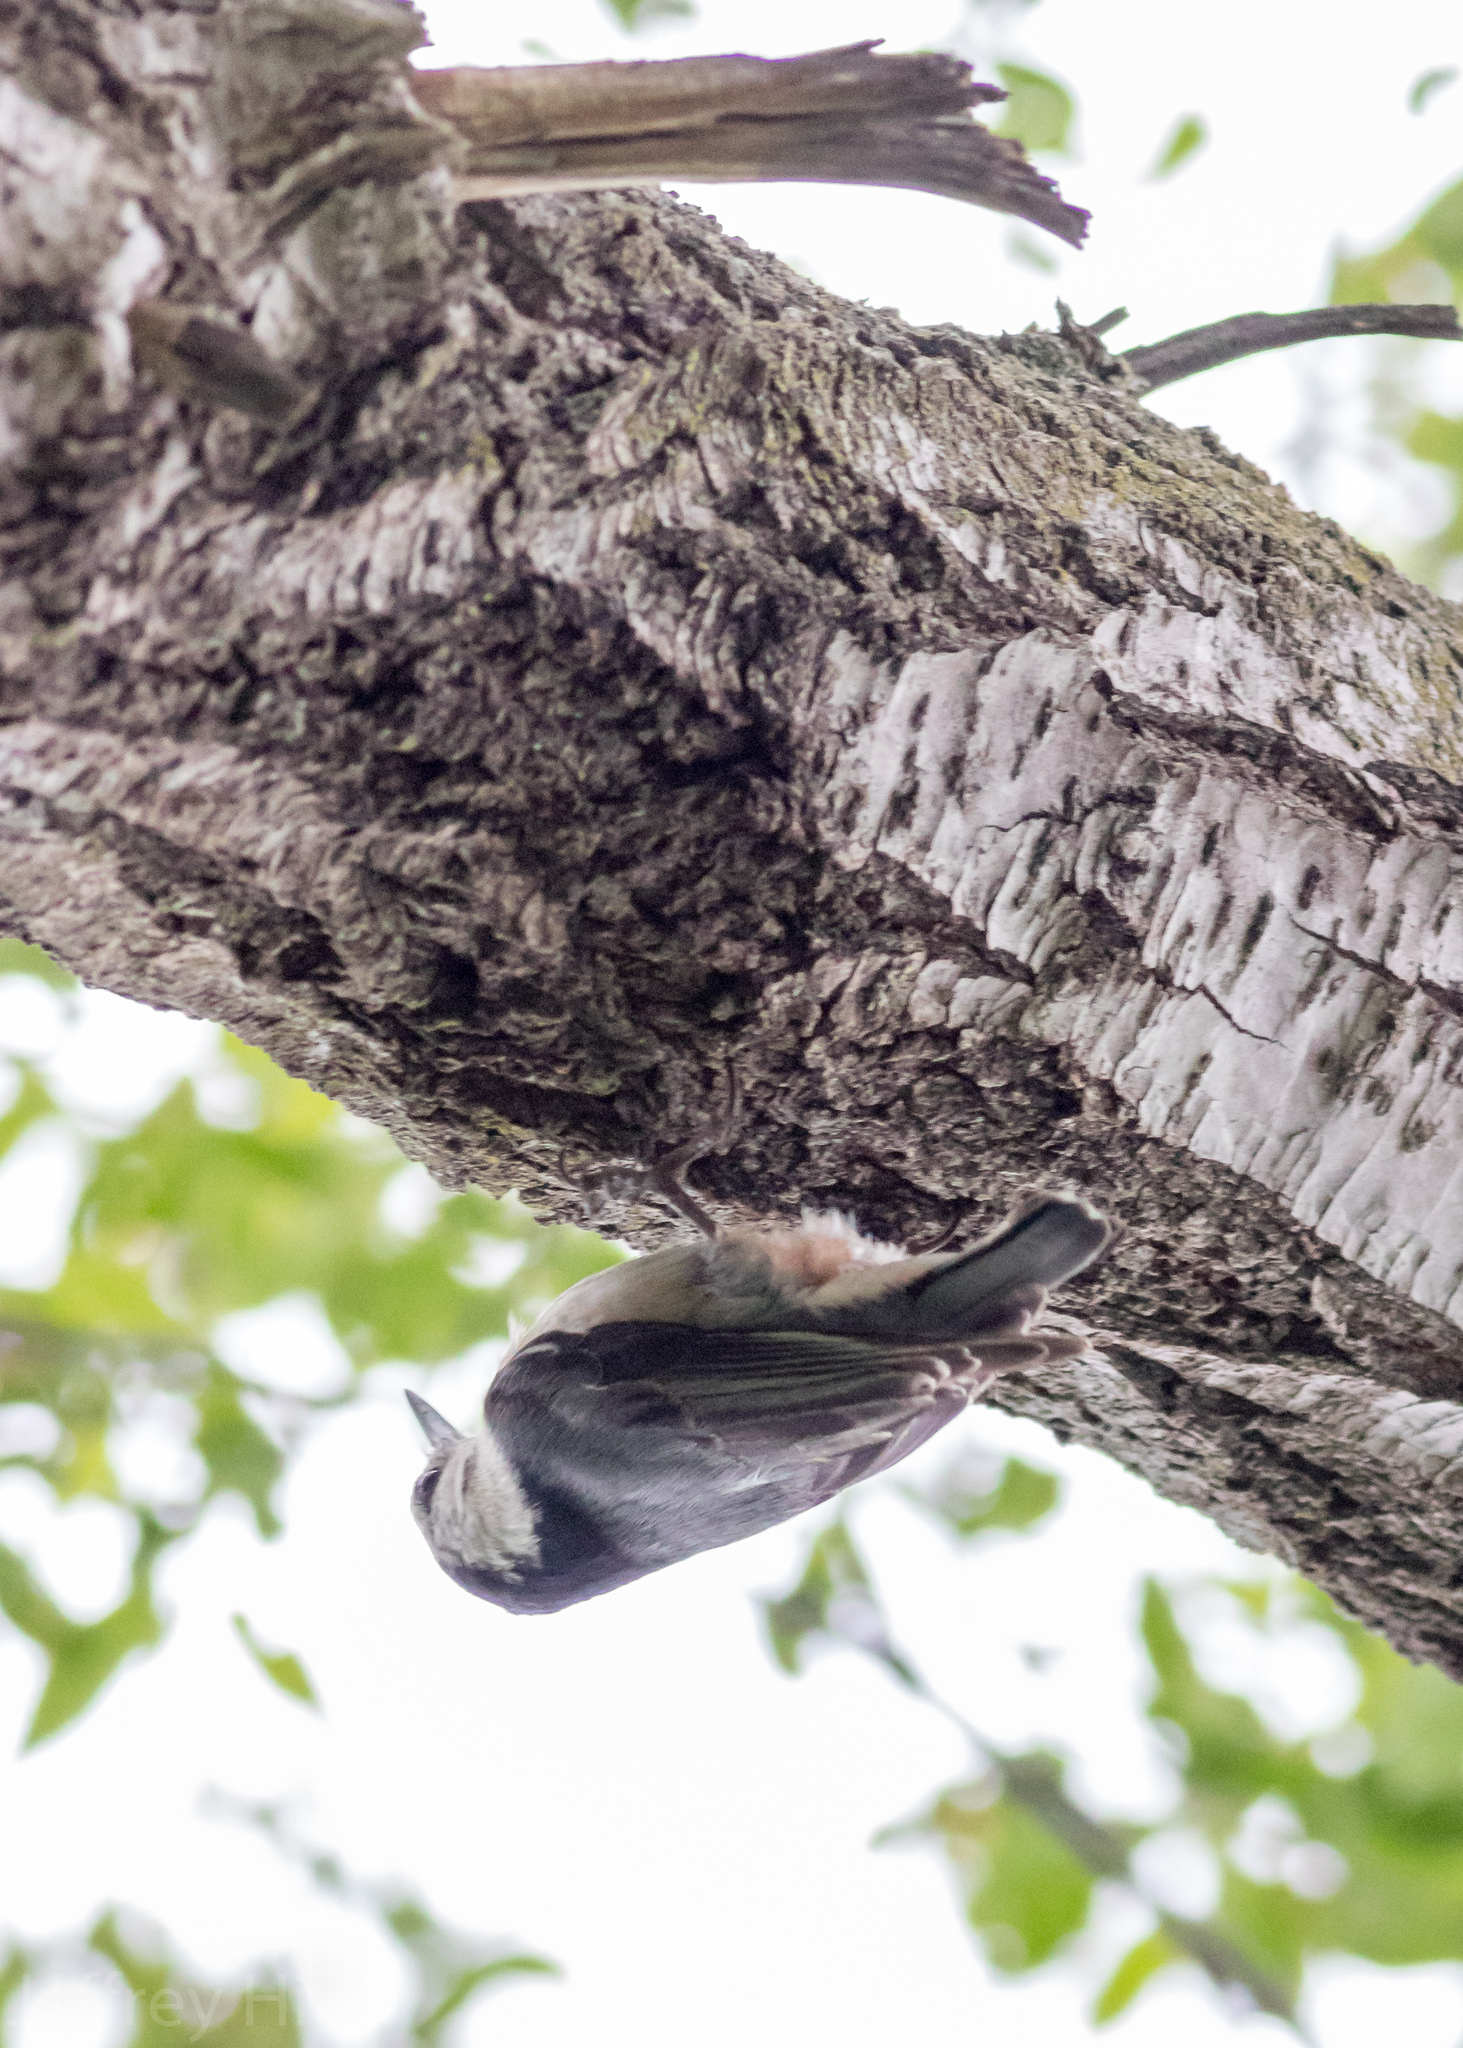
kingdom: Animalia
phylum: Chordata
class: Aves
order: Passeriformes
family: Sittidae
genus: Sitta
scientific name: Sitta carolinensis
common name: White-breasted nuthatch
